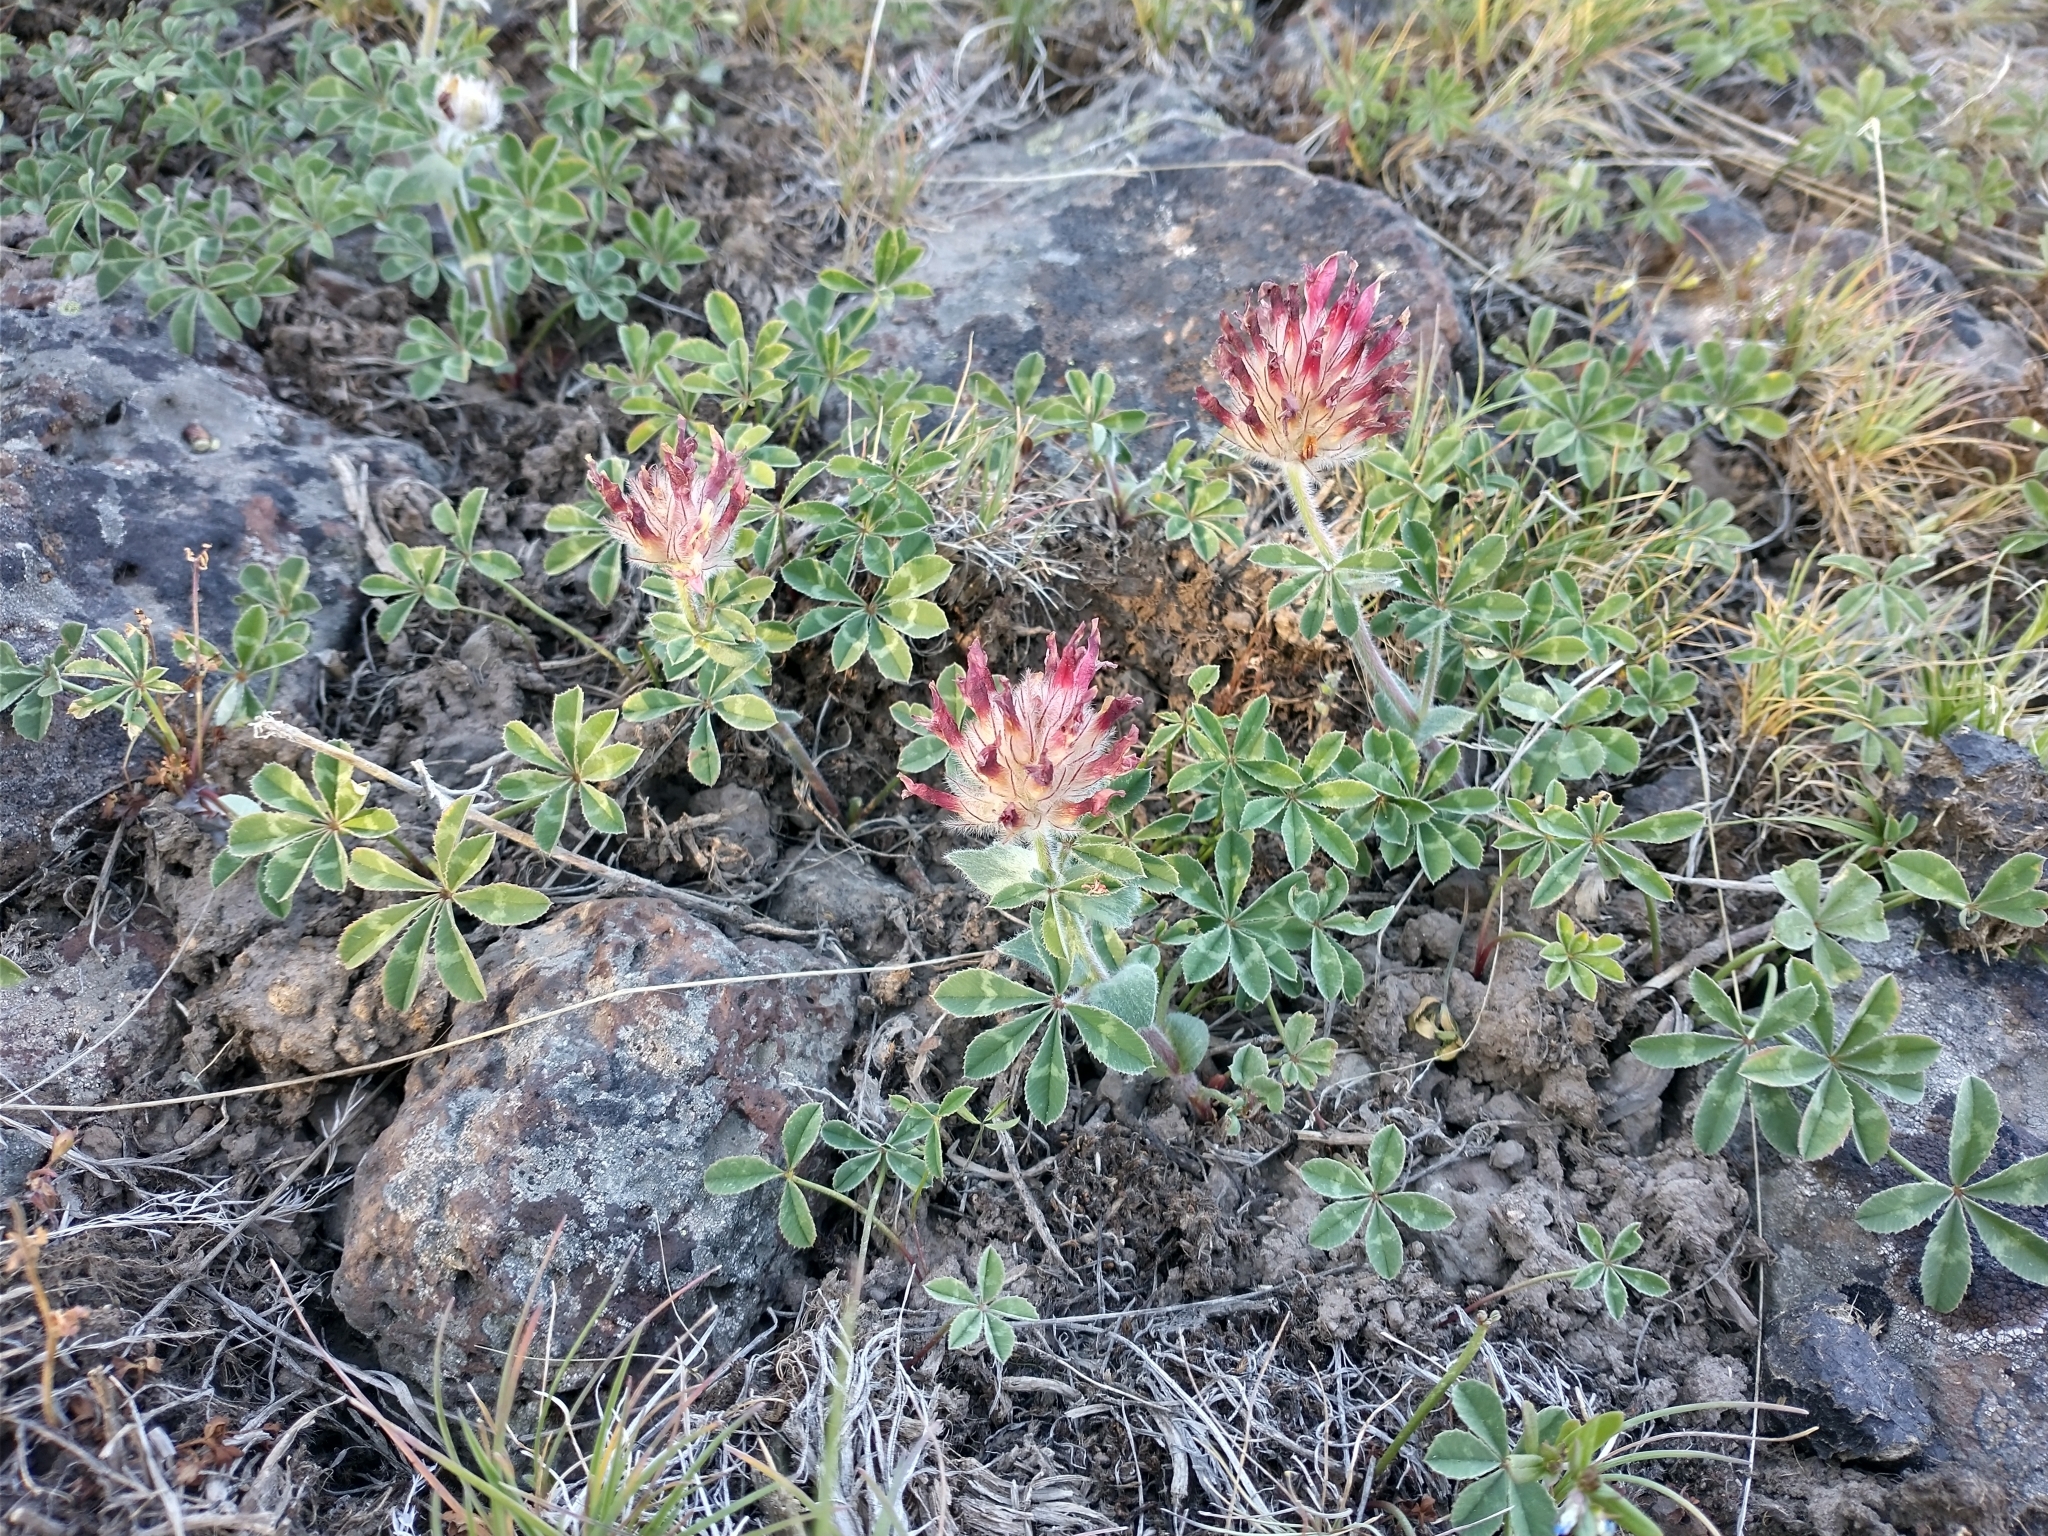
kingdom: Plantae
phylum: Tracheophyta
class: Magnoliopsida
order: Fabales
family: Fabaceae
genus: Trifolium
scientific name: Trifolium macrocephalum
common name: Large-head clover
